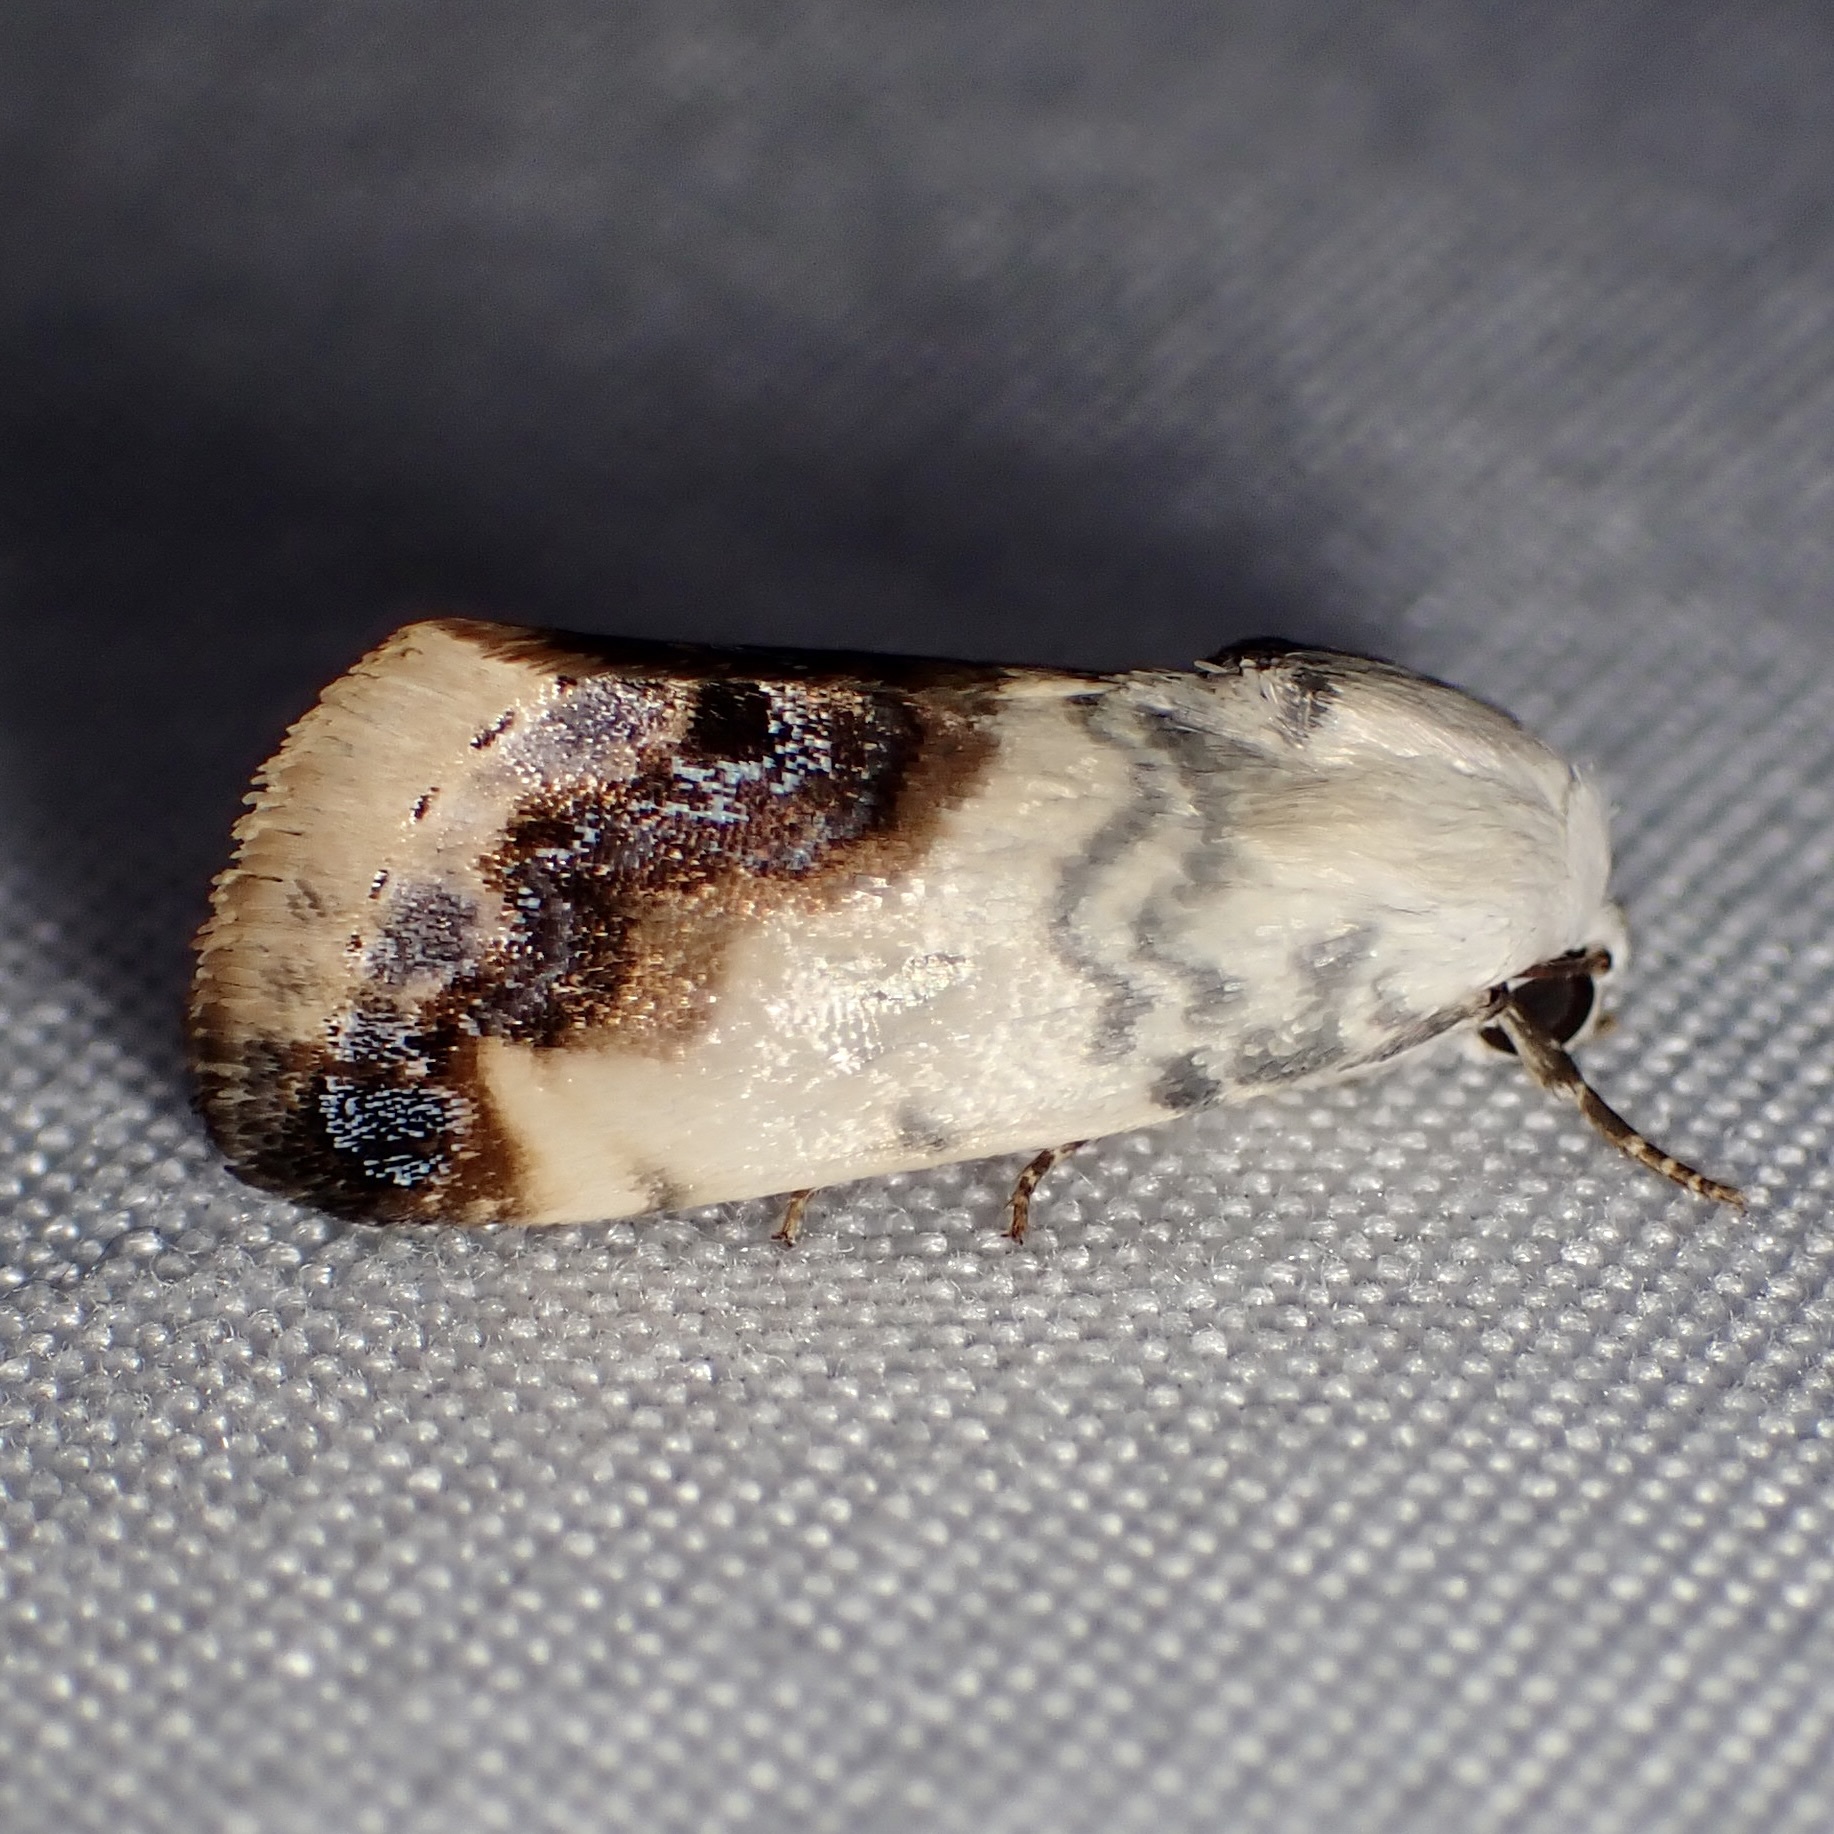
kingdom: Animalia
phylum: Arthropoda
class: Insecta
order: Lepidoptera
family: Noctuidae
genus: Acontia
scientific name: Acontia behrii
